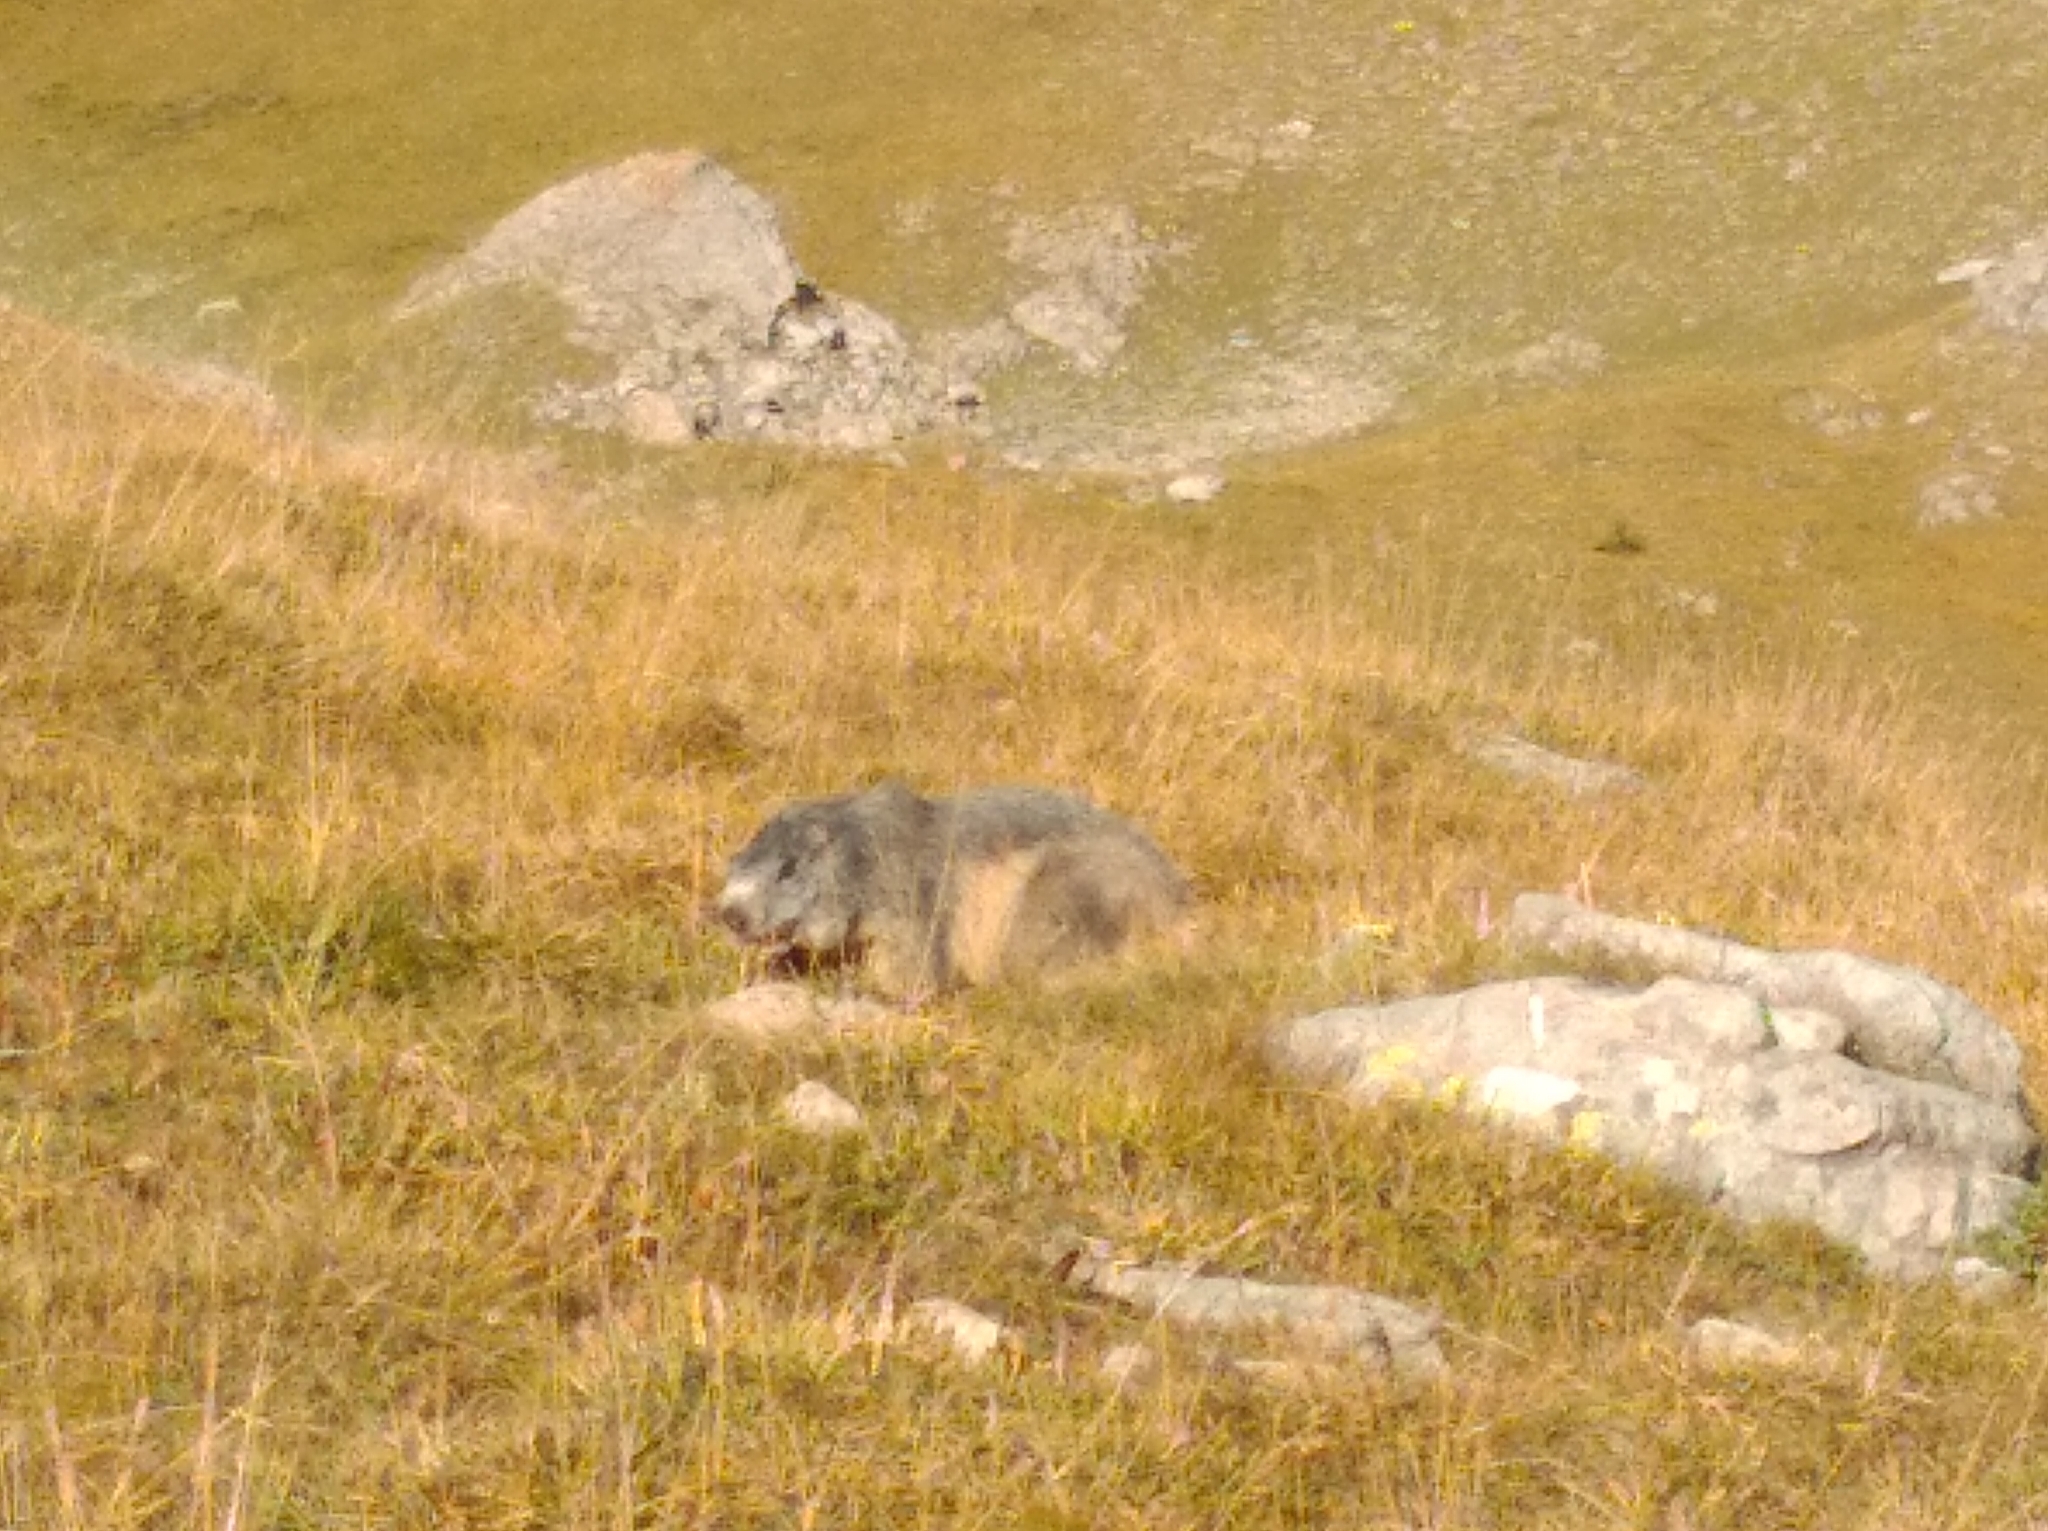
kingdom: Animalia
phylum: Chordata
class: Mammalia
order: Rodentia
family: Sciuridae
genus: Marmota
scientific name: Marmota marmota
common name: Alpine marmot
